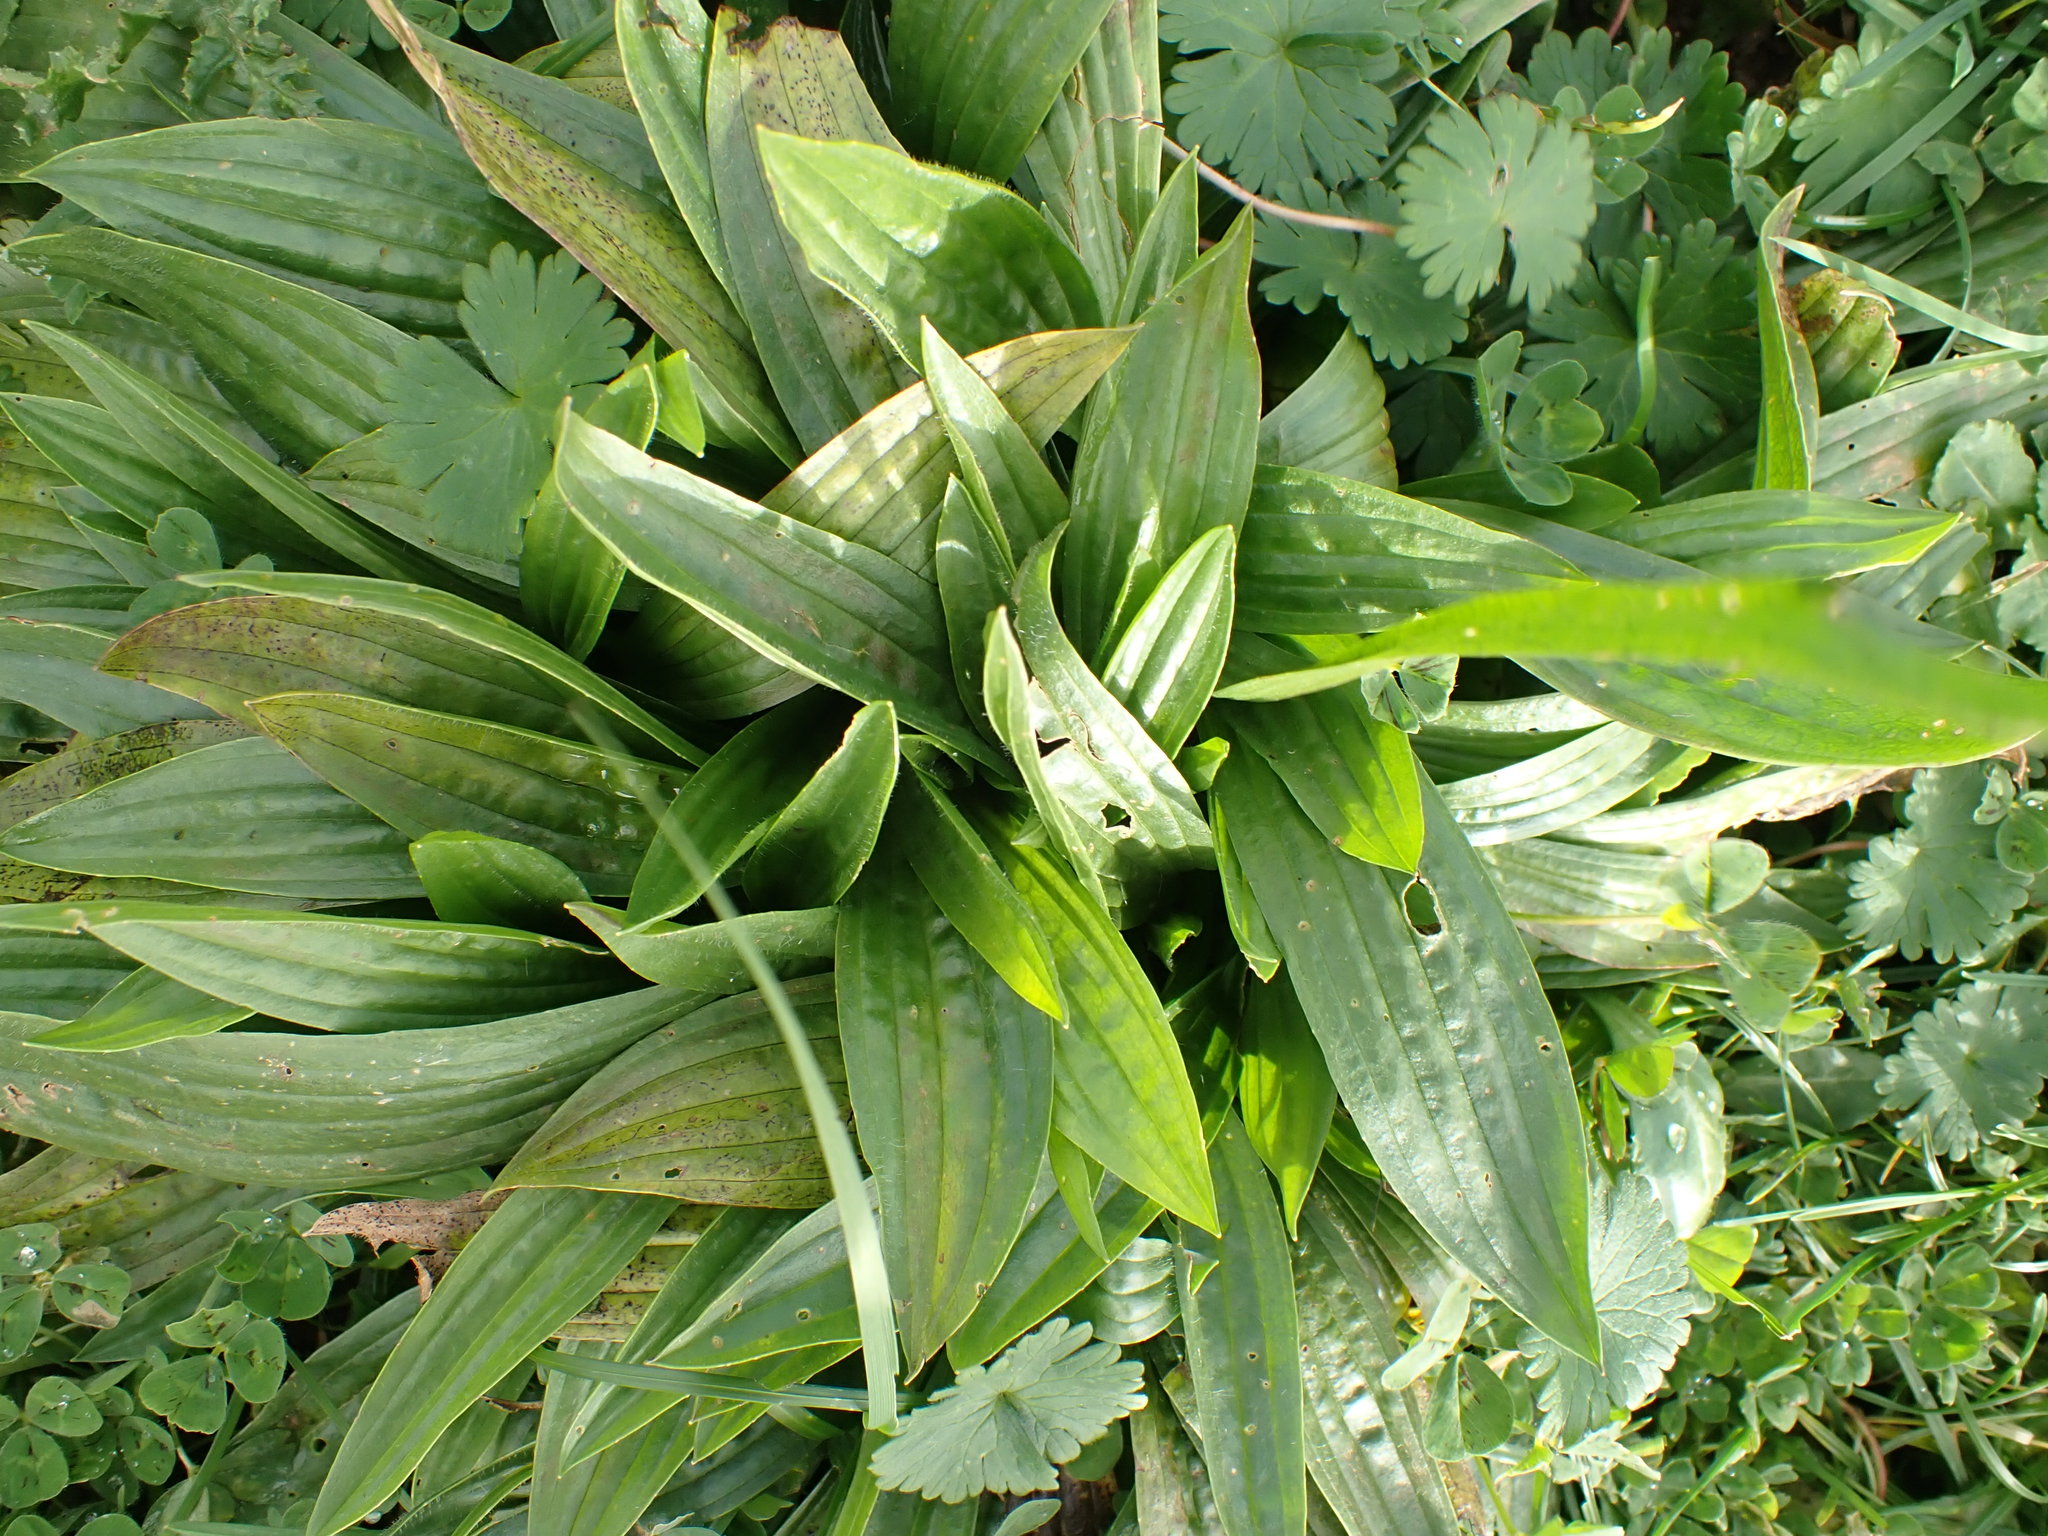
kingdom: Plantae
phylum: Tracheophyta
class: Magnoliopsida
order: Lamiales
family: Plantaginaceae
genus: Plantago
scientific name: Plantago lanceolata
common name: Ribwort plantain
